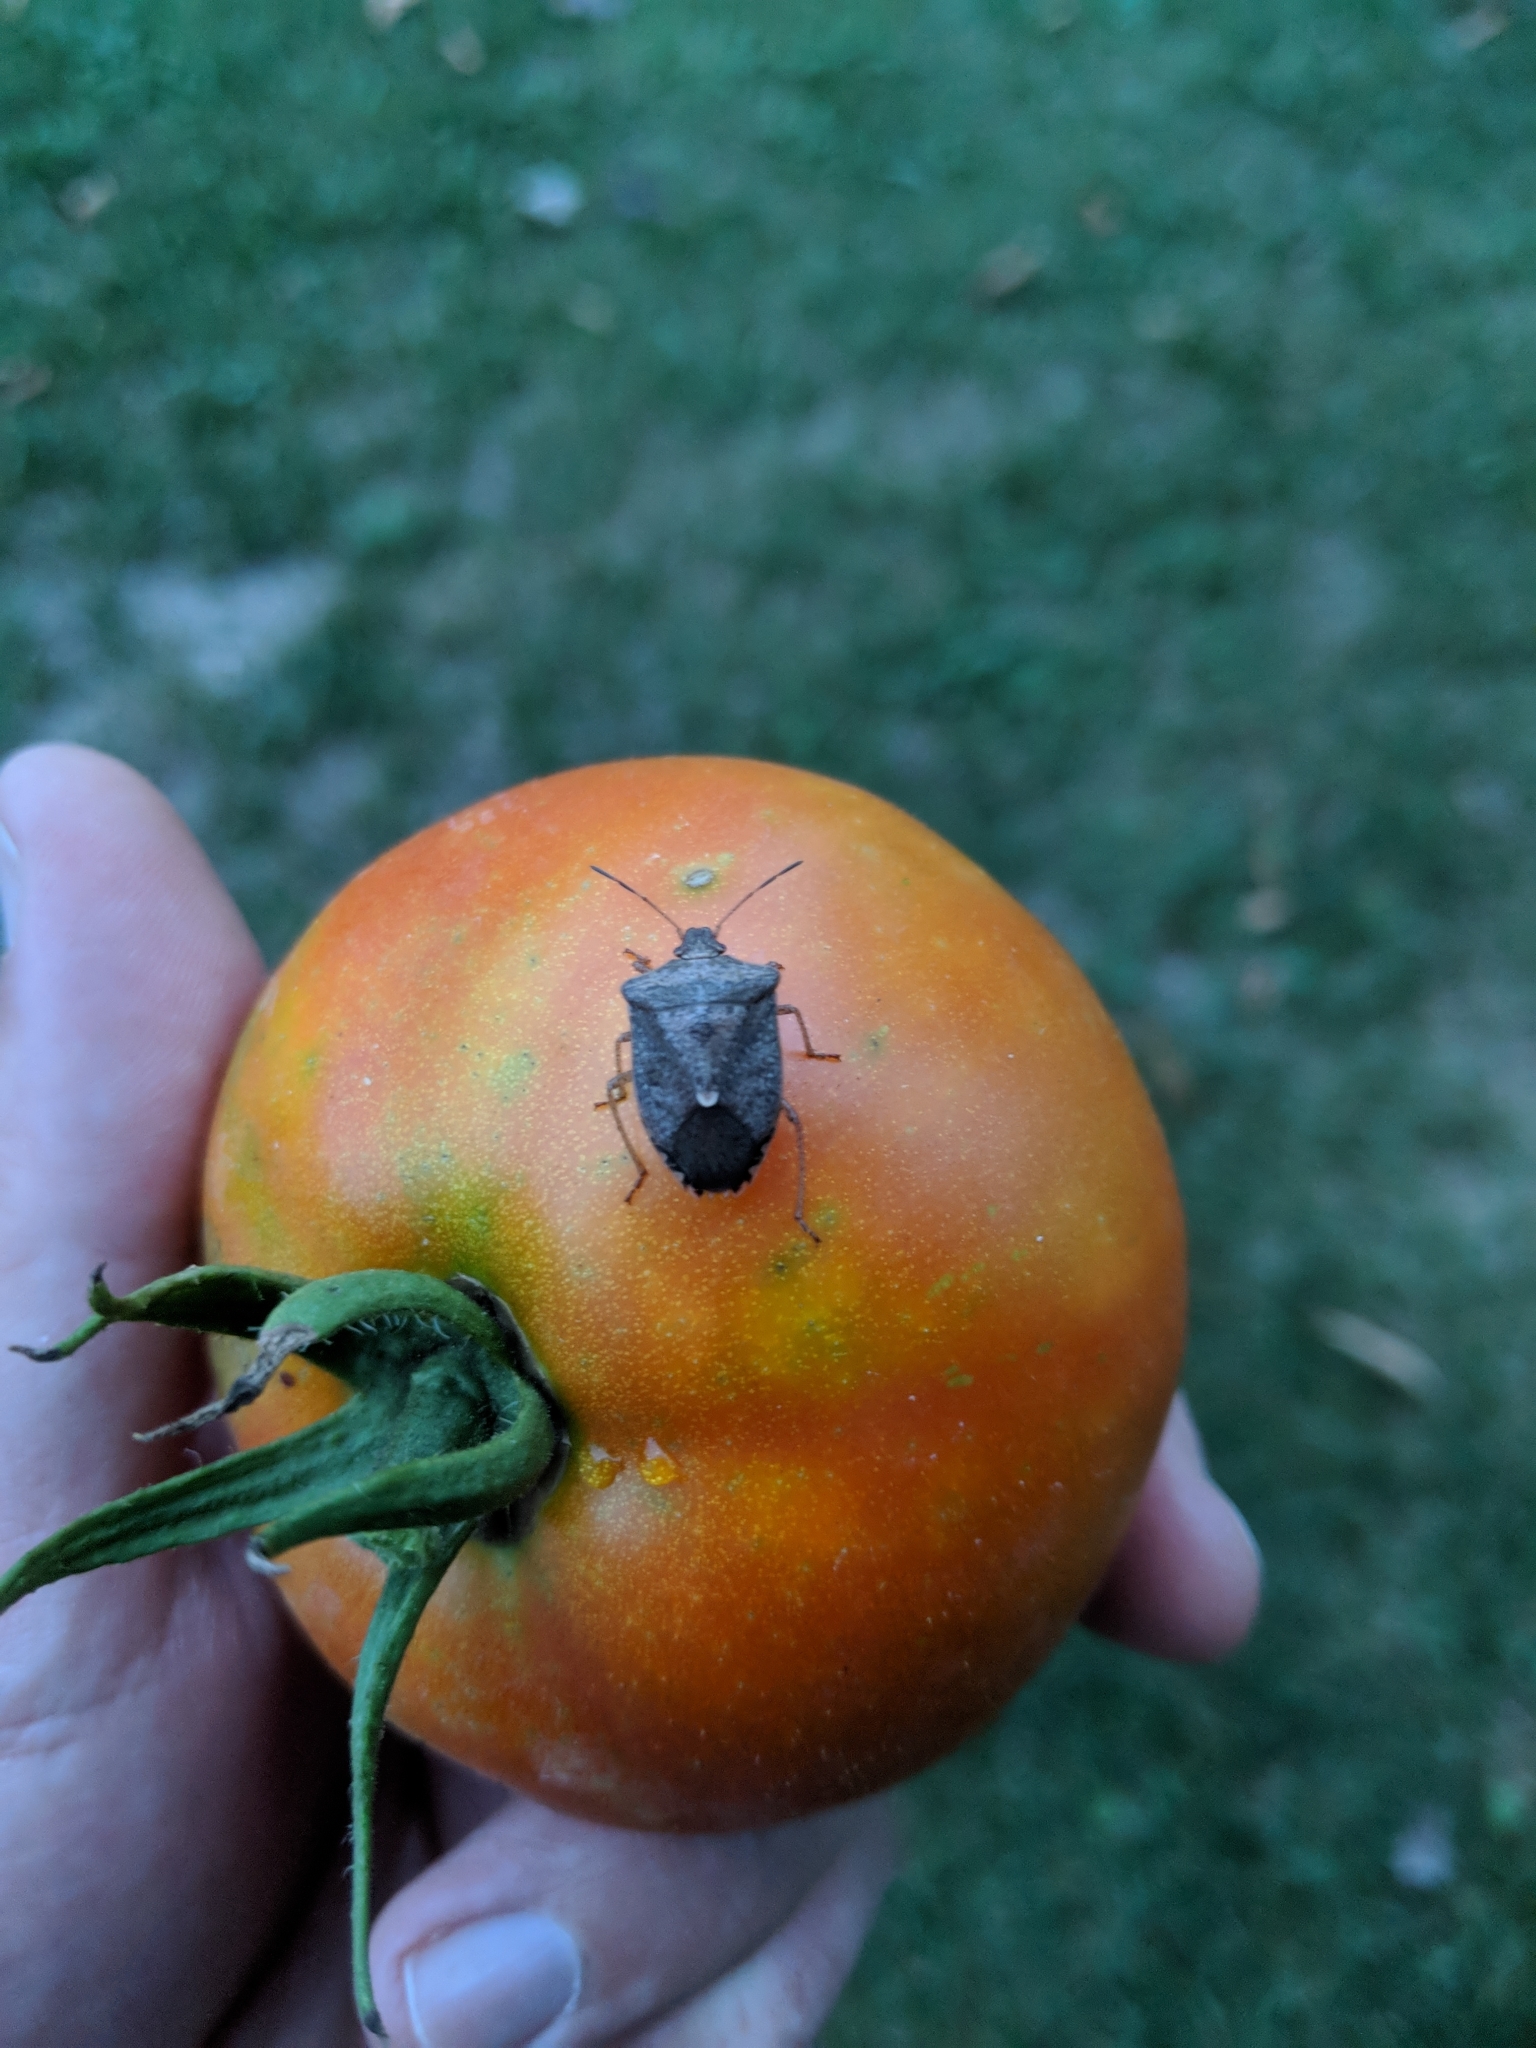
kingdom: Animalia
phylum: Arthropoda
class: Insecta
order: Hemiptera
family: Pentatomidae
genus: Euschistus
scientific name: Euschistus tristigmus
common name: Dusky stink bug
